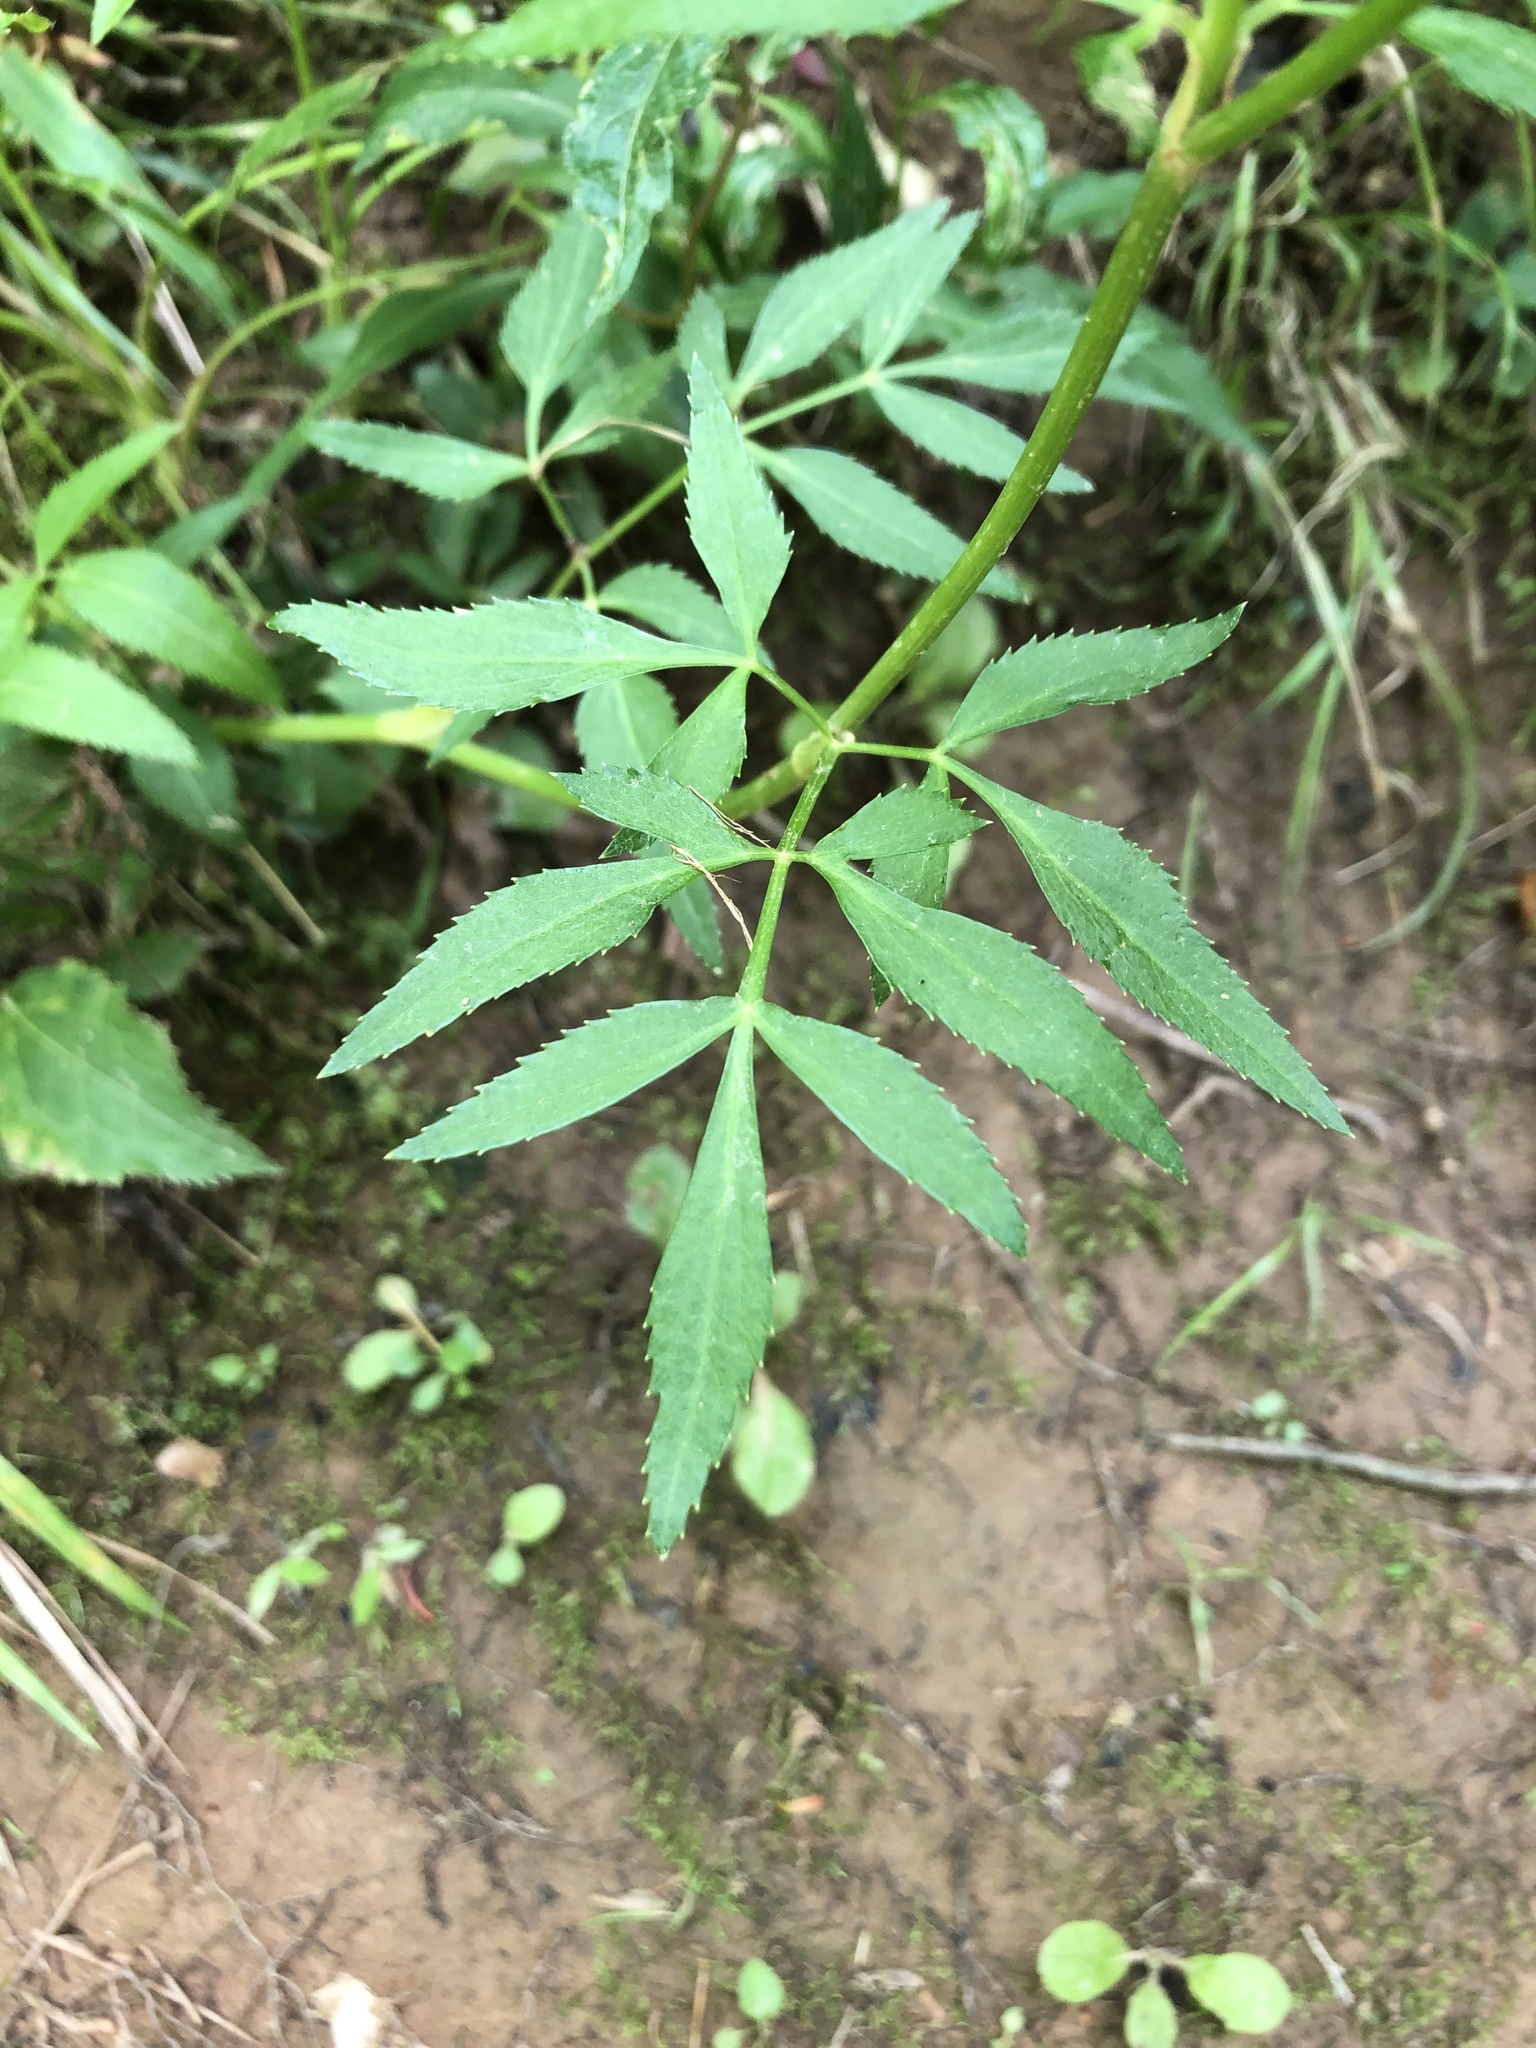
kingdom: Plantae
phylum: Tracheophyta
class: Magnoliopsida
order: Apiales
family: Apiaceae
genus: Zizia
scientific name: Zizia aurea
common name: Golden alexanders
